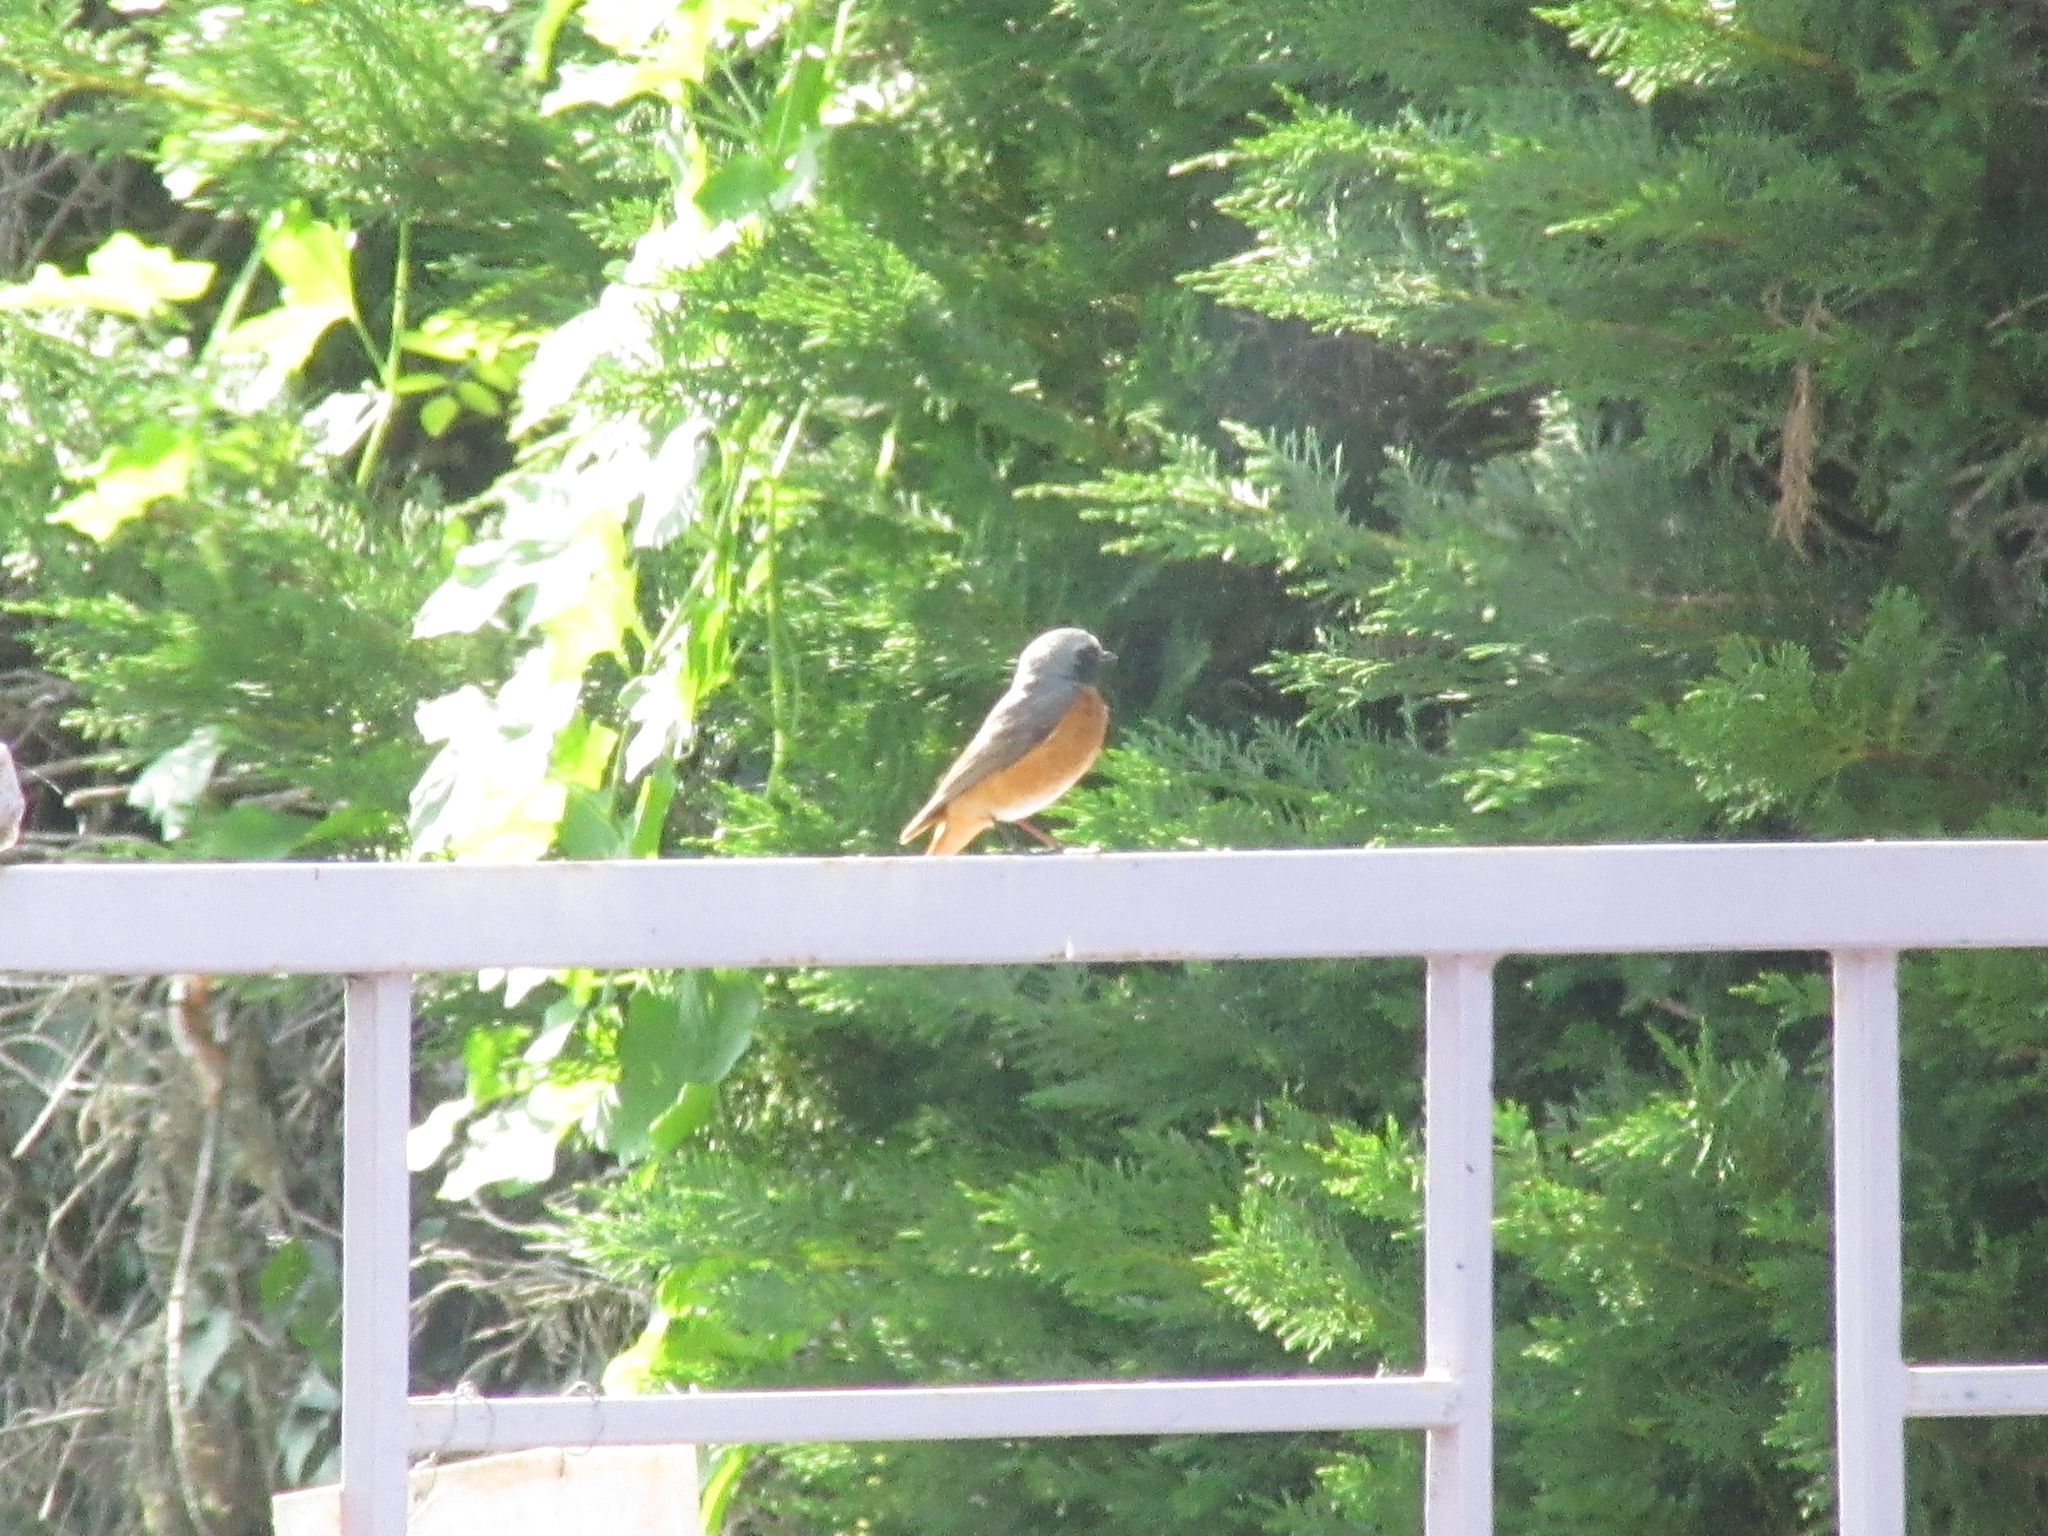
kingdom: Animalia
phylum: Chordata
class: Aves
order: Passeriformes
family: Muscicapidae
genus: Phoenicurus
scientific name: Phoenicurus phoenicurus
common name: Common redstart
